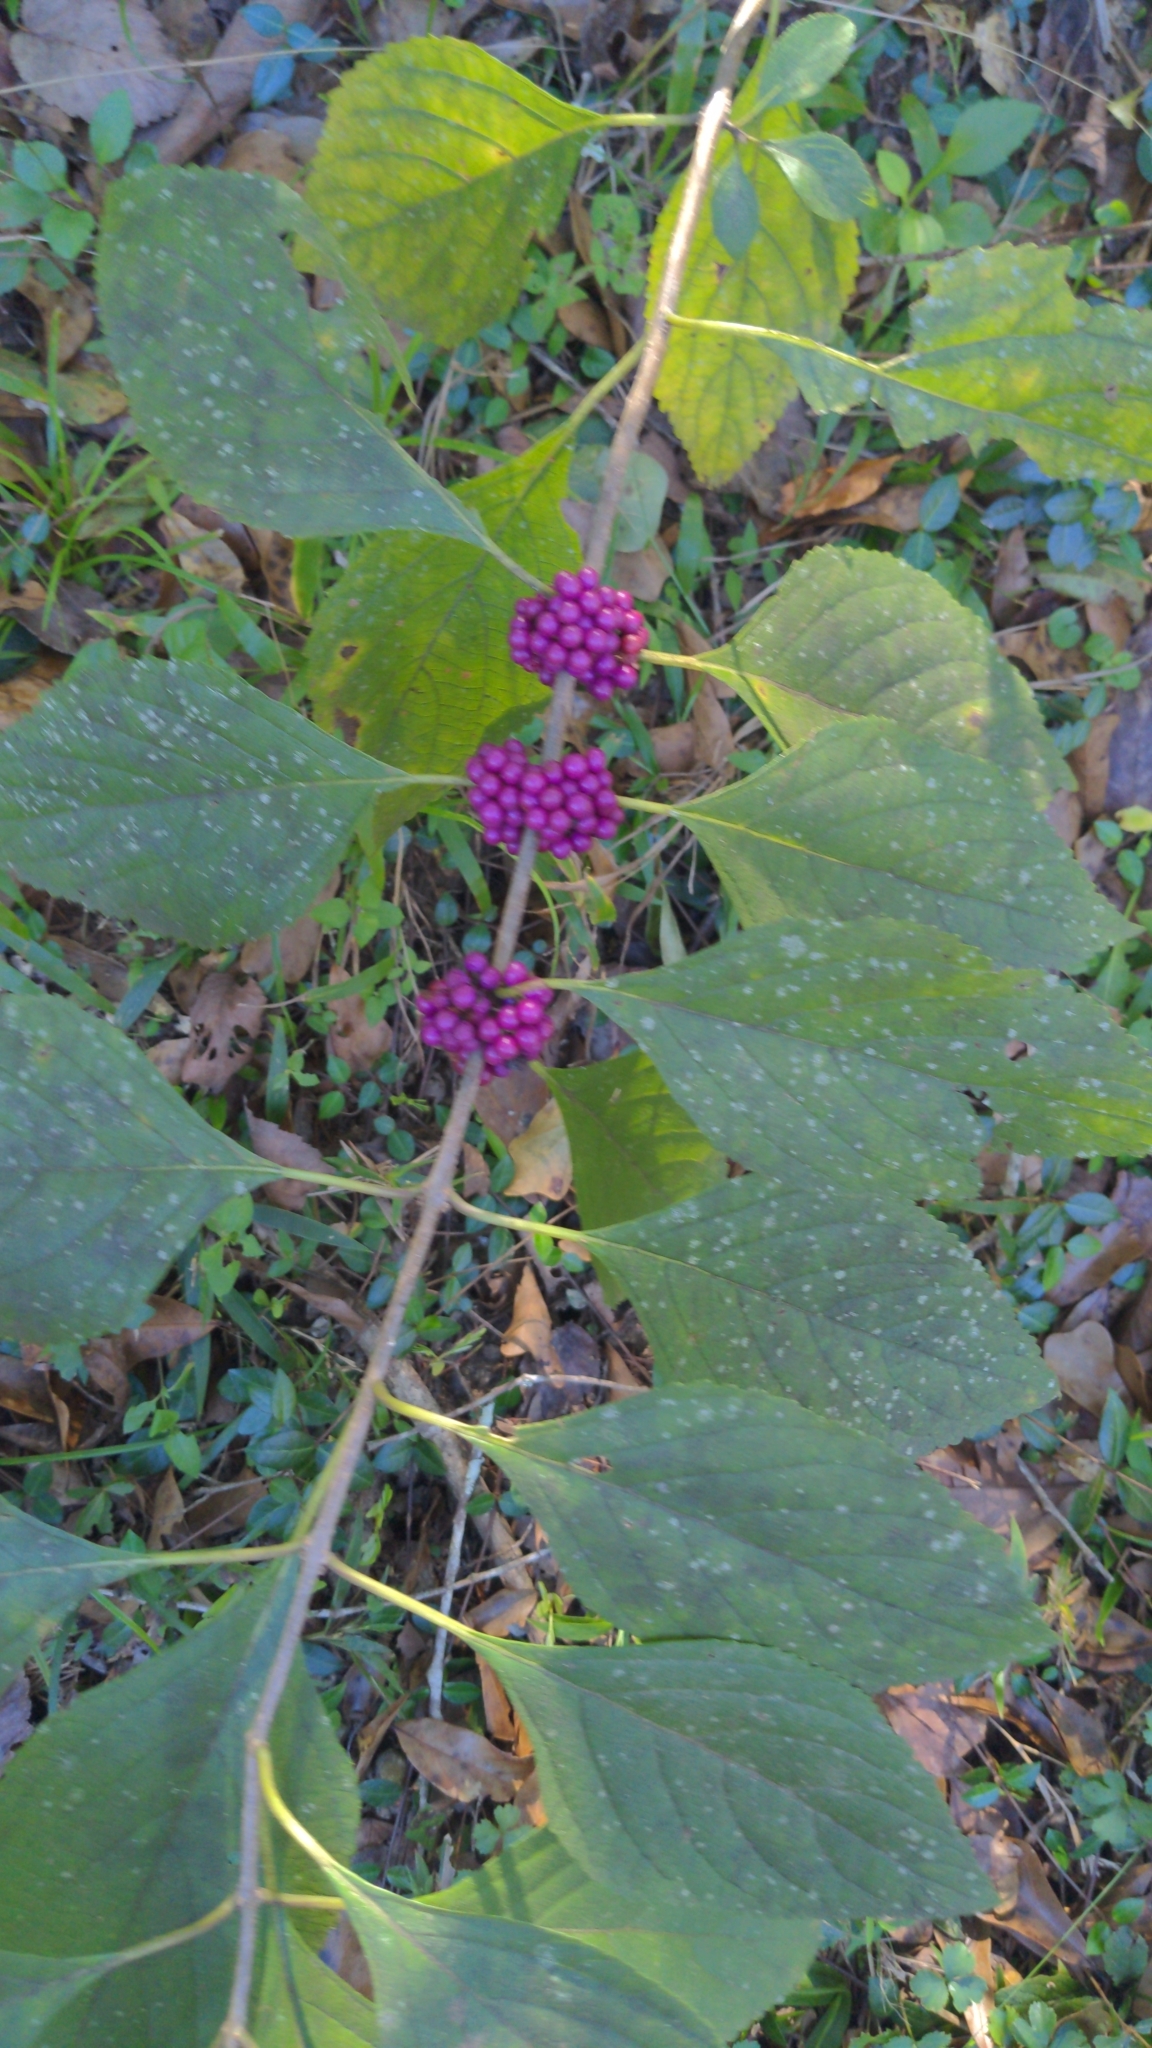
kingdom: Plantae
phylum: Tracheophyta
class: Magnoliopsida
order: Lamiales
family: Lamiaceae
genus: Callicarpa
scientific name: Callicarpa americana
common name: American beautyberry
